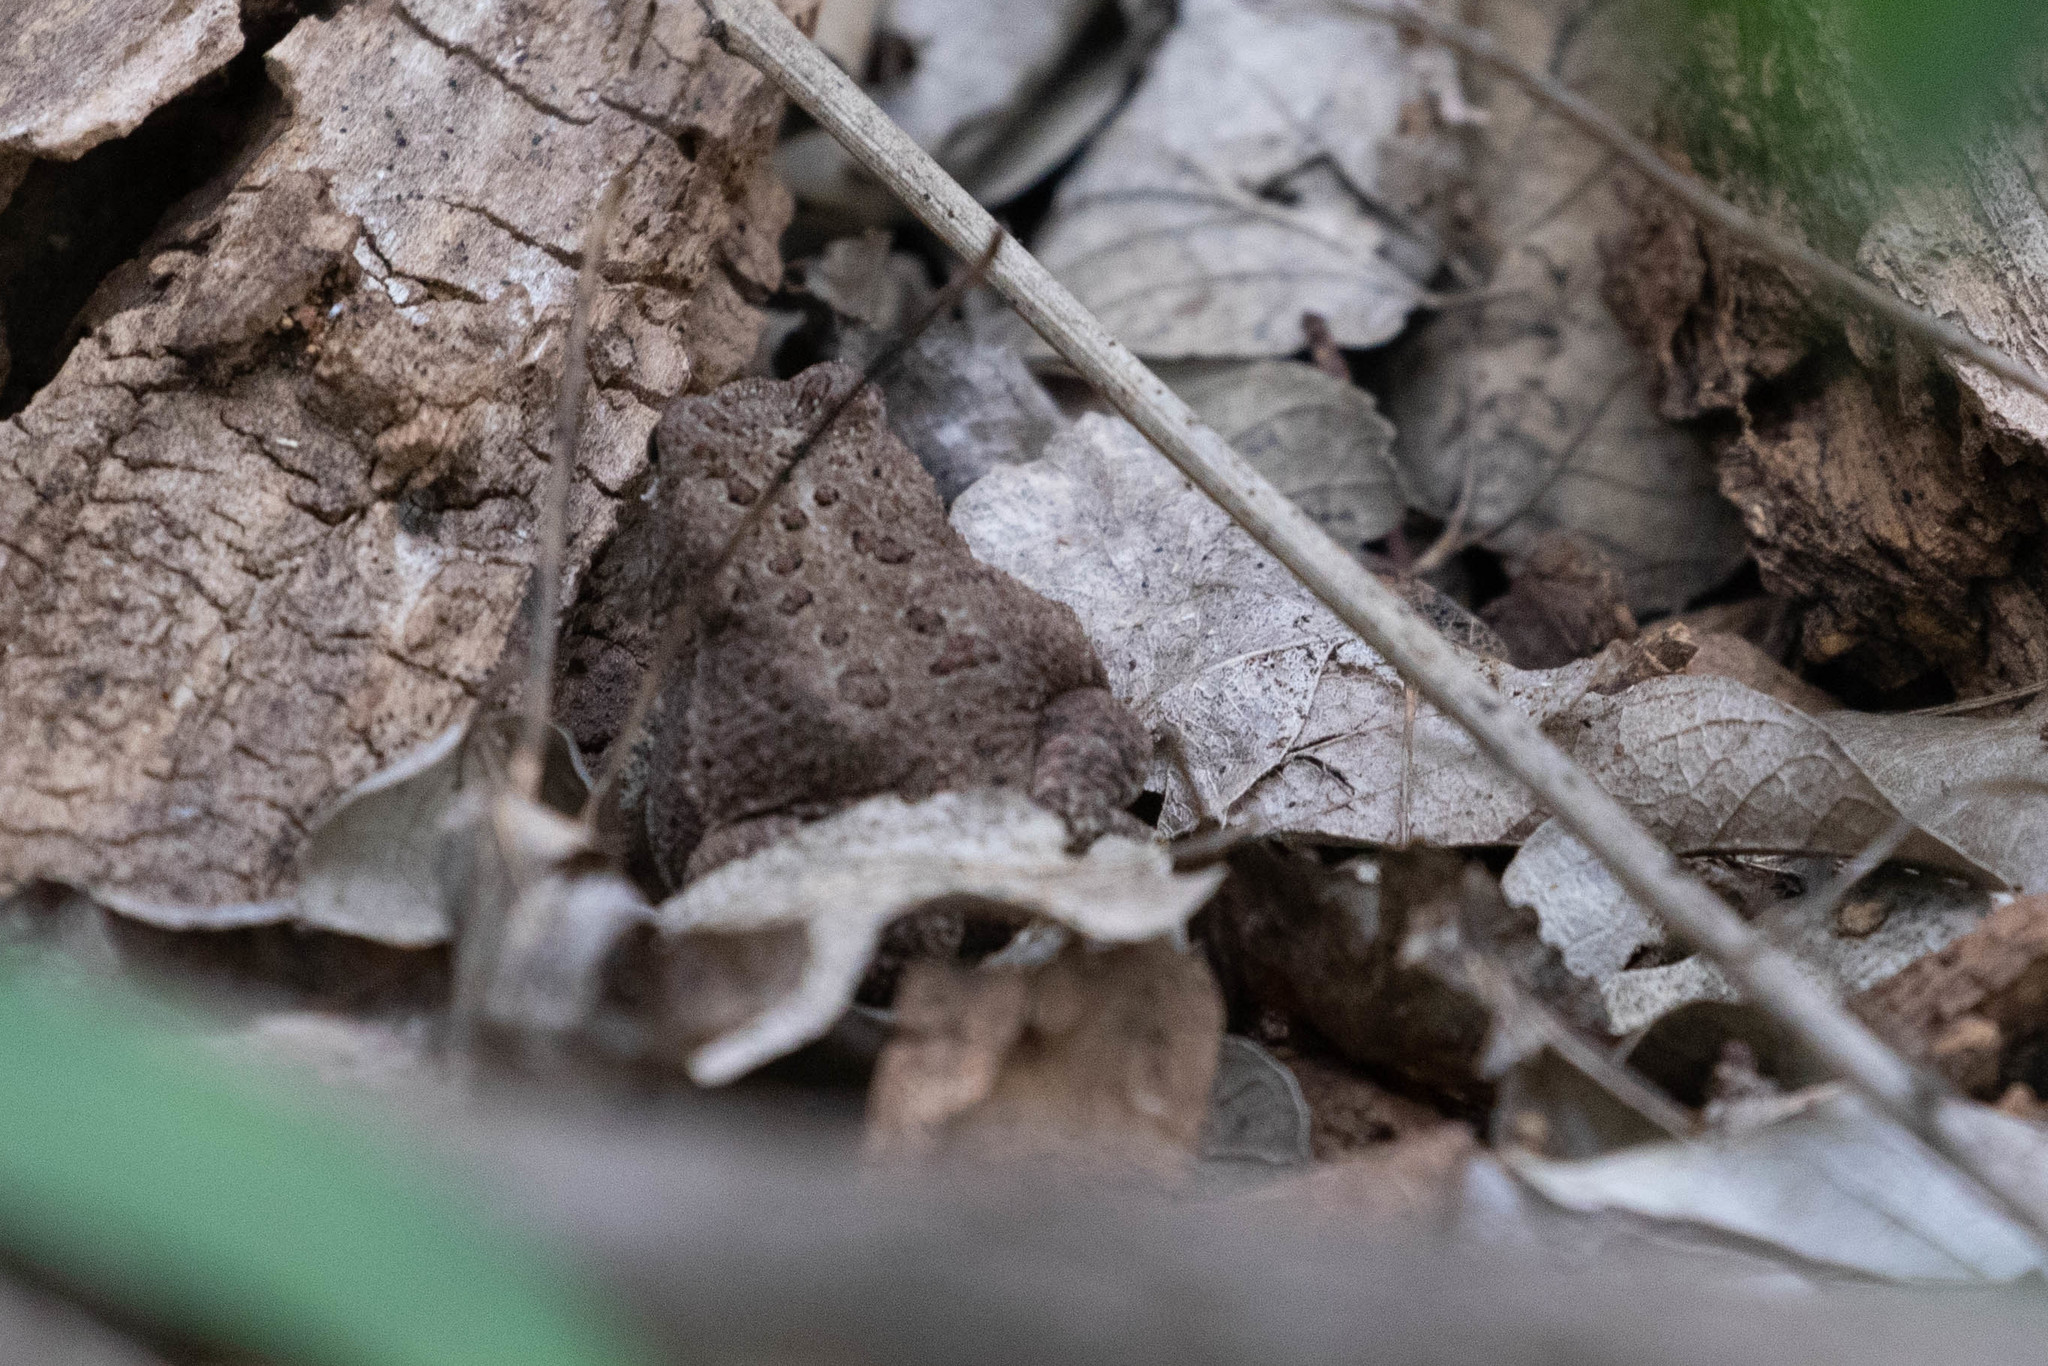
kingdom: Animalia
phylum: Chordata
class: Amphibia
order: Anura
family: Bufonidae
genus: Anaxyrus
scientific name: Anaxyrus woodhousii
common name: Woodhouse's toad
